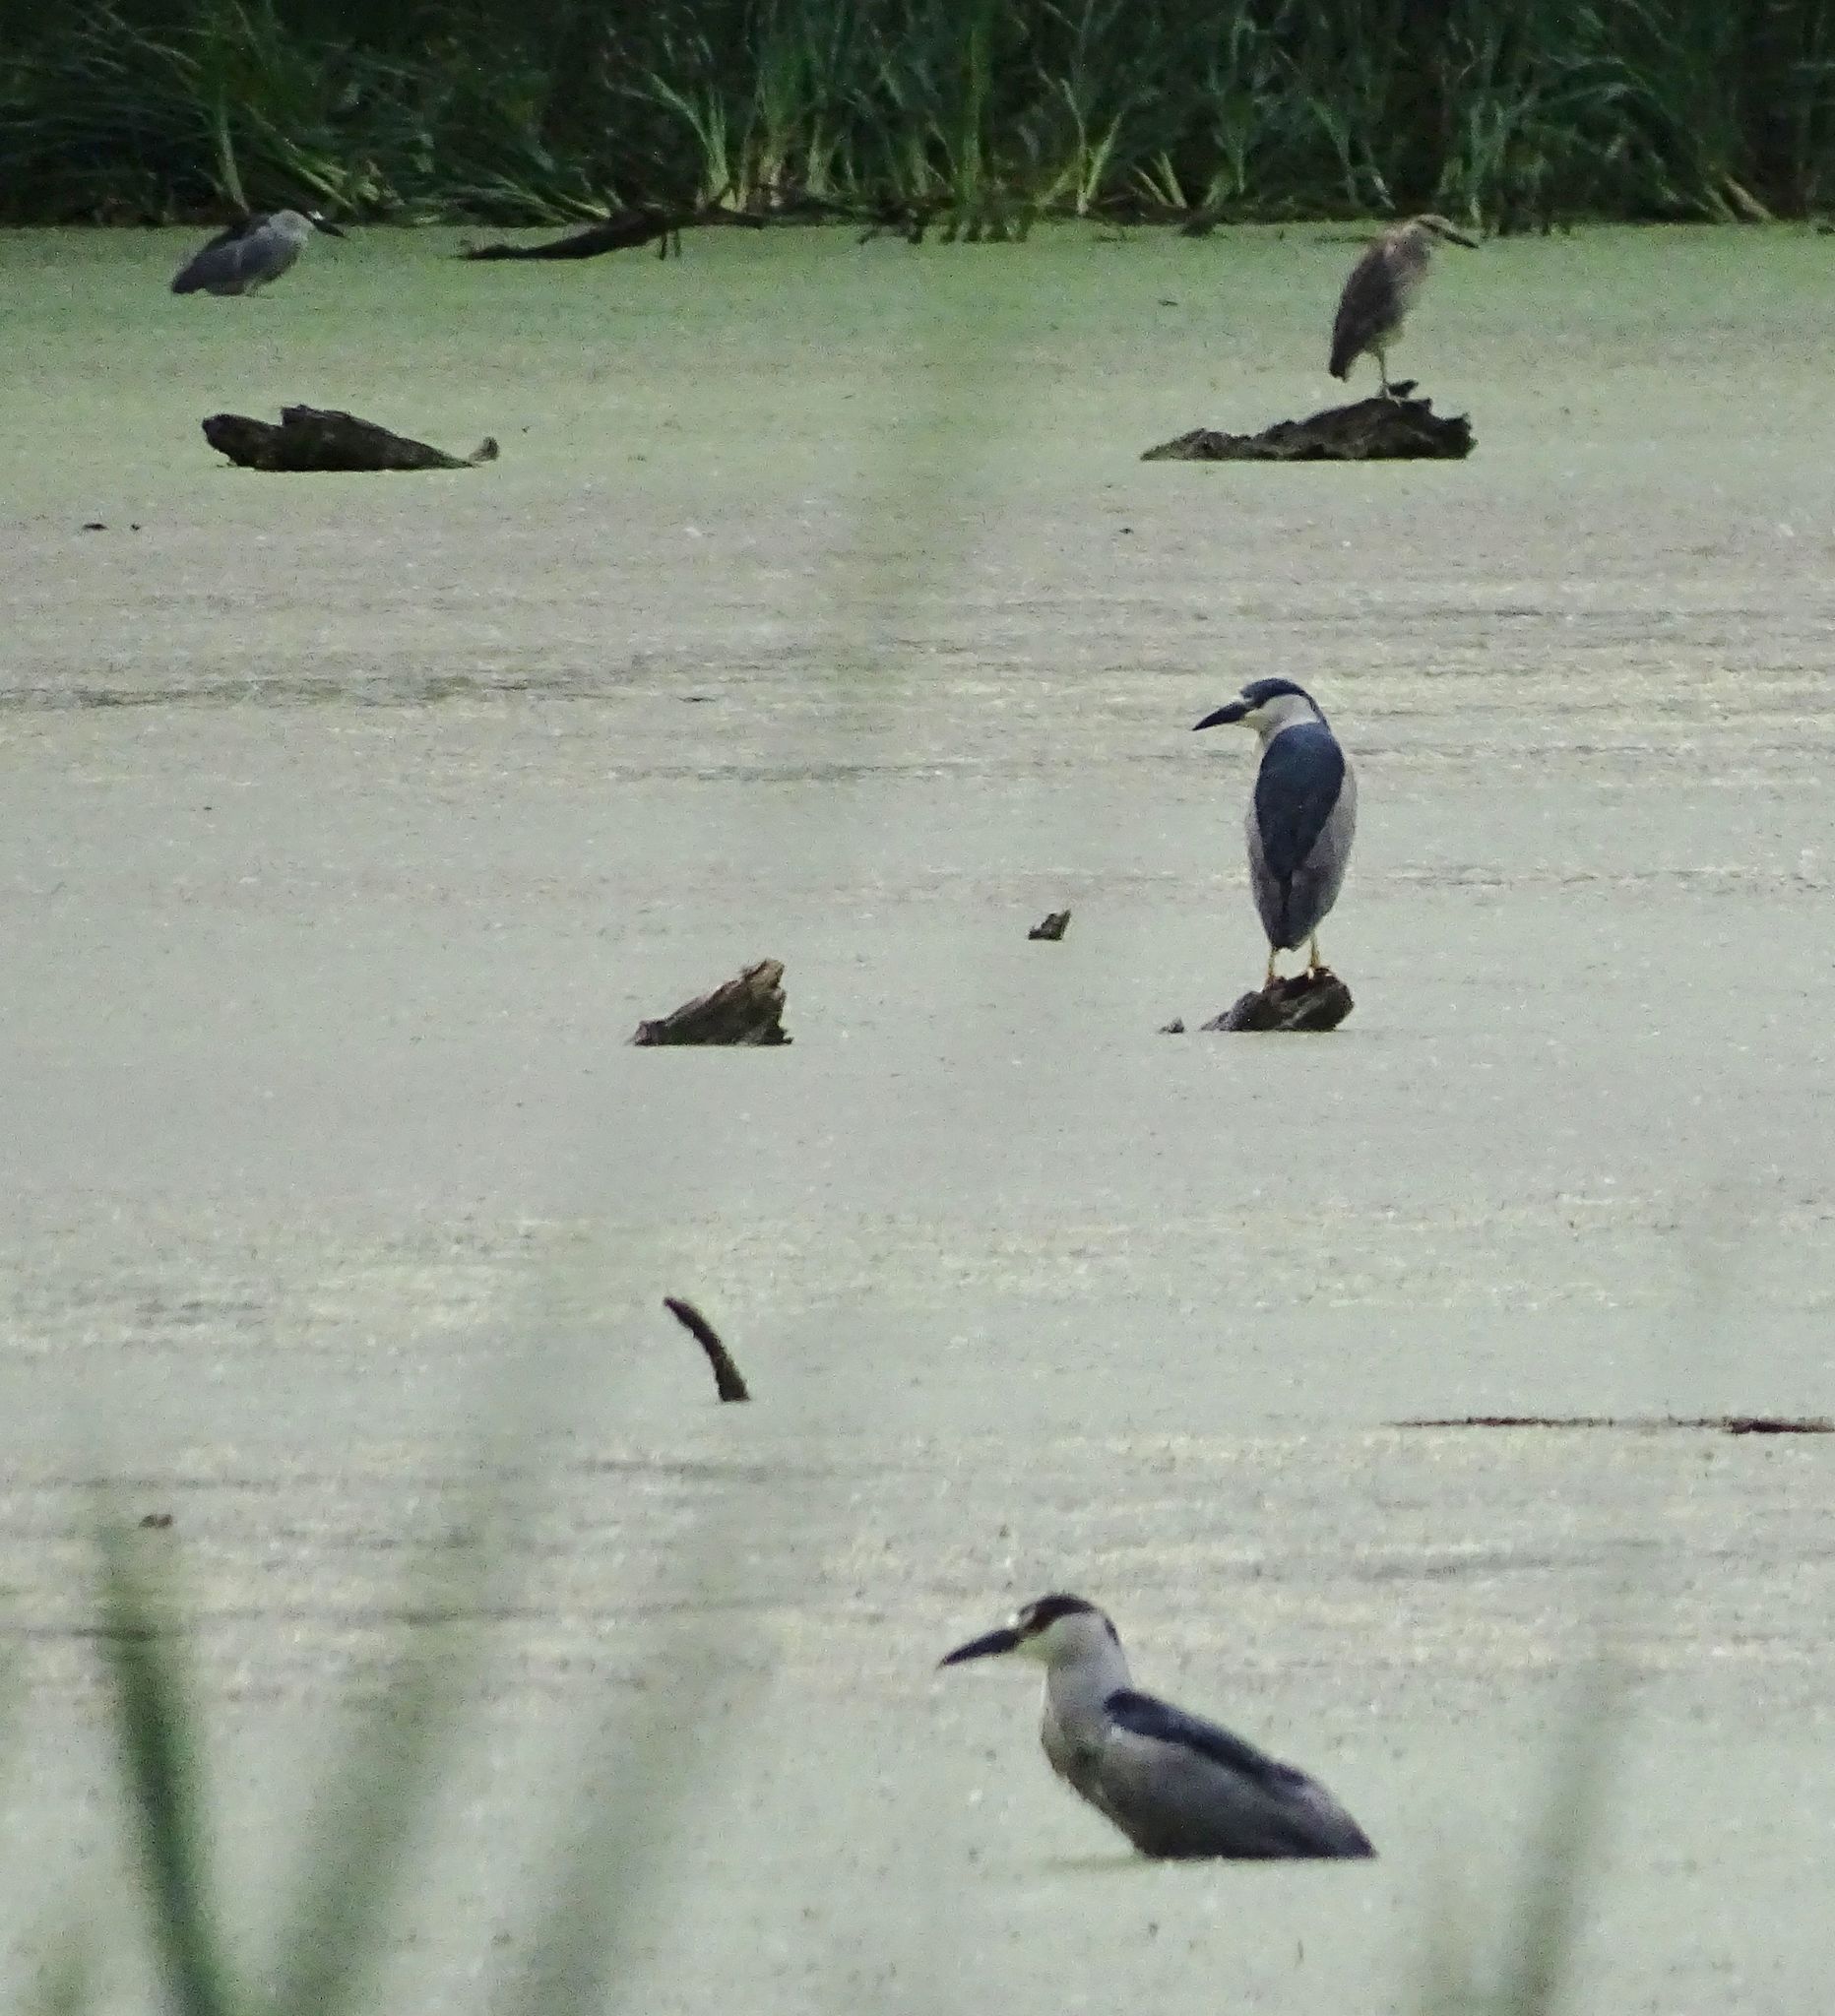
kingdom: Animalia
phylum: Chordata
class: Aves
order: Pelecaniformes
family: Ardeidae
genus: Nycticorax
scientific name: Nycticorax nycticorax
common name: Black-crowned night heron
